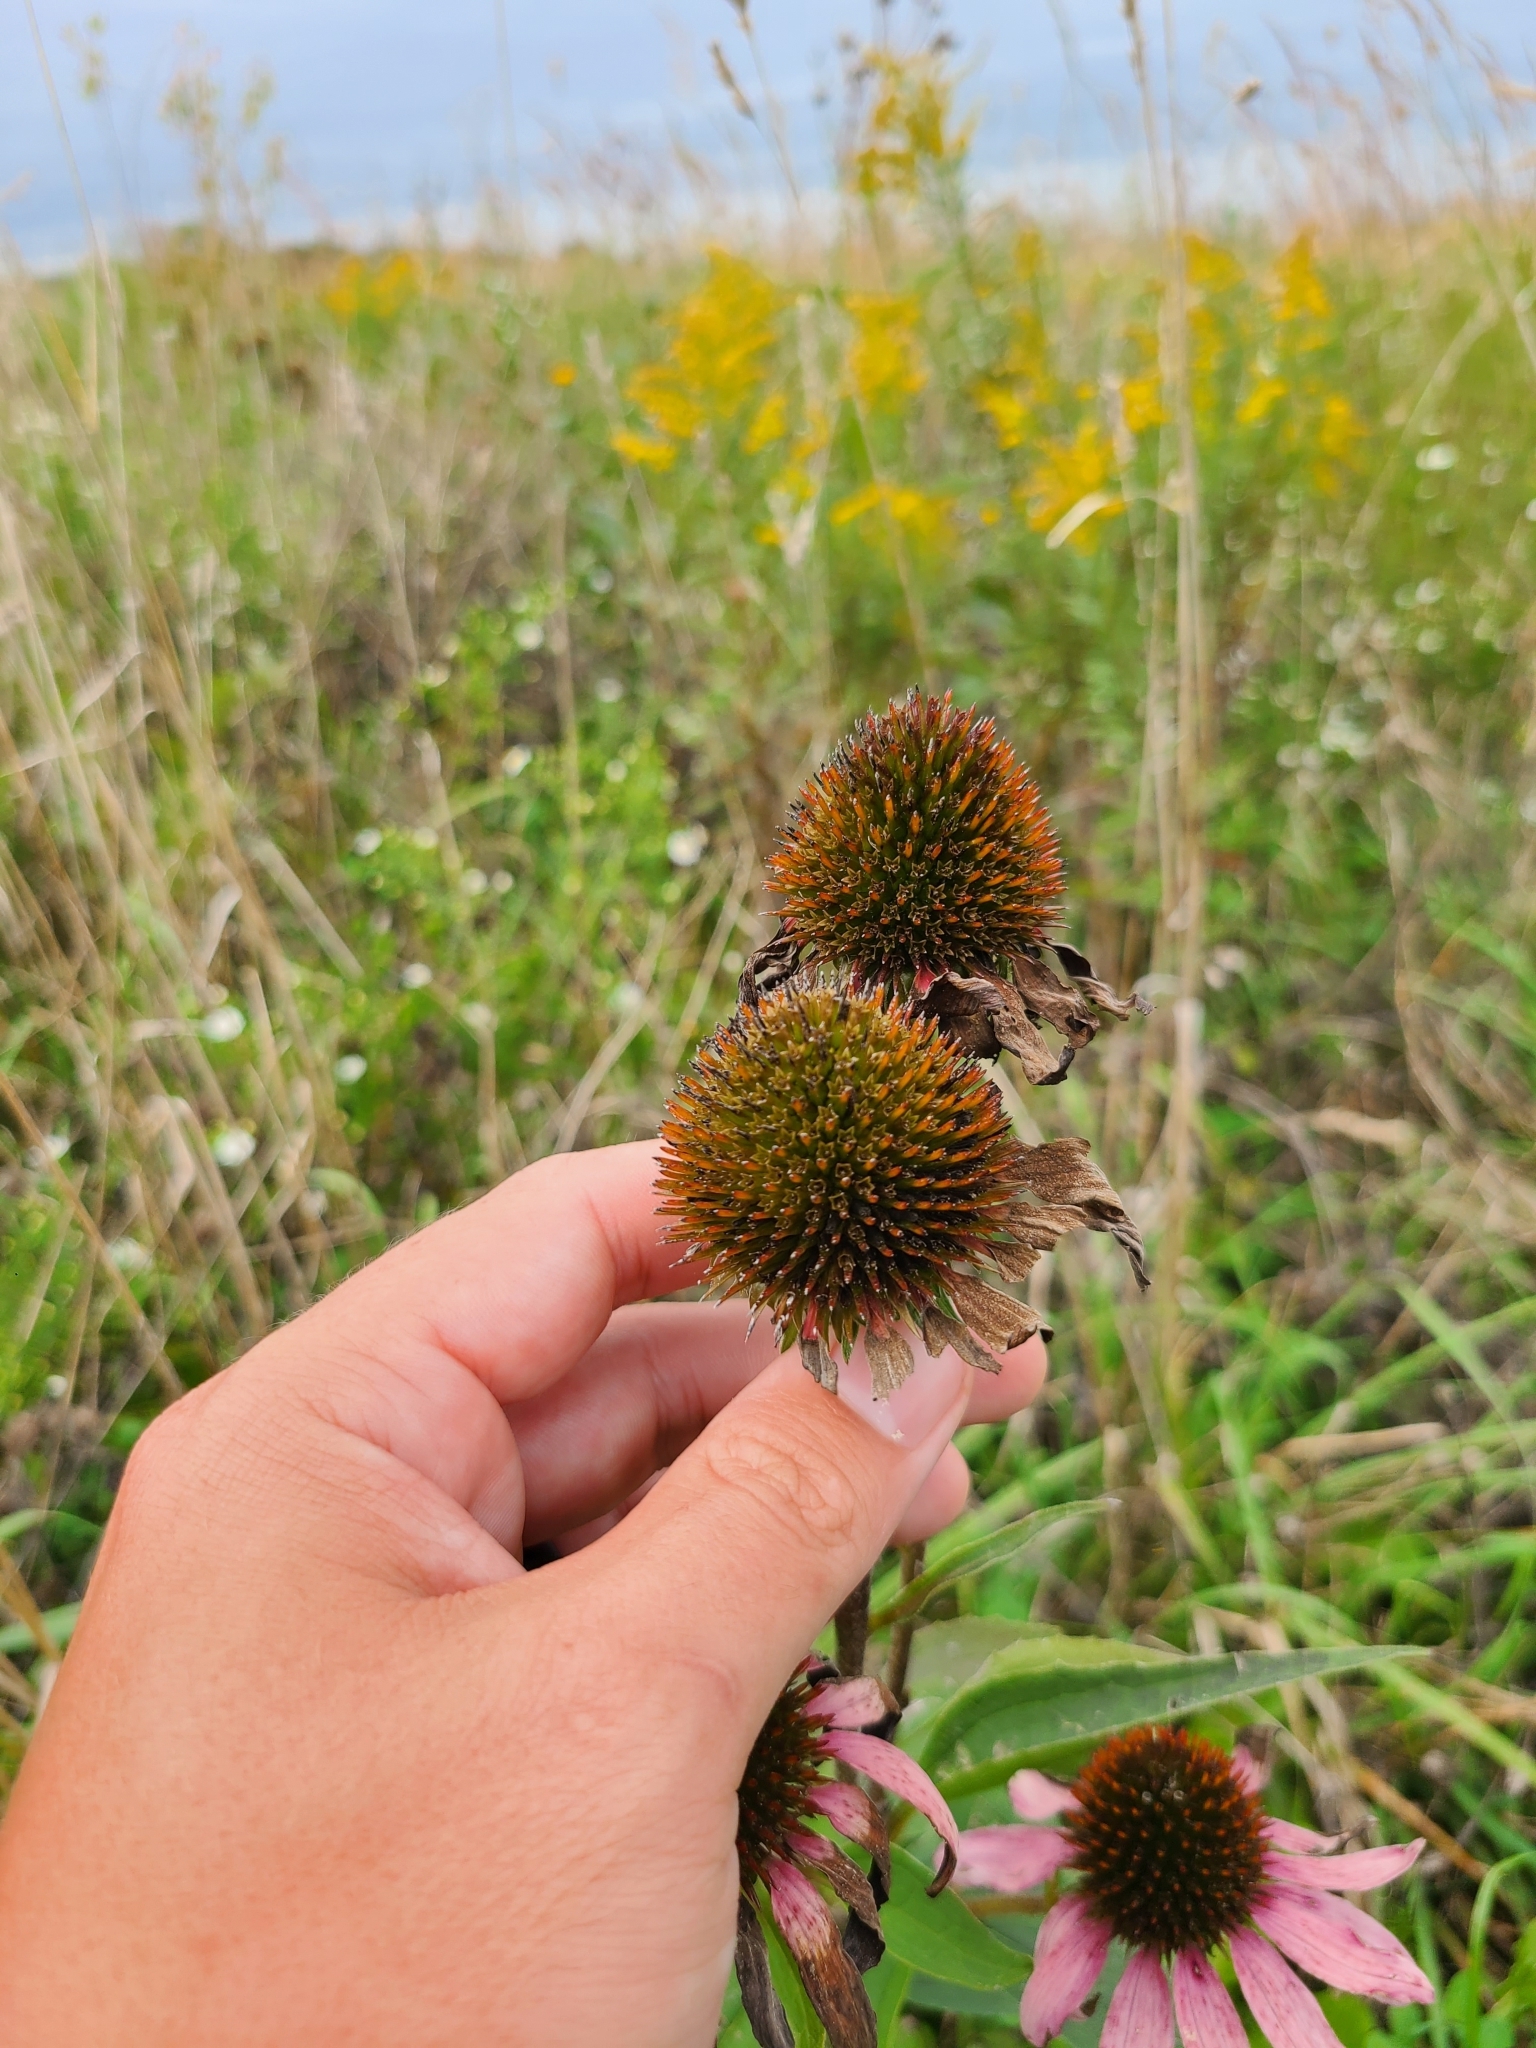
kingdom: Plantae
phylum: Tracheophyta
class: Magnoliopsida
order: Asterales
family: Asteraceae
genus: Echinacea
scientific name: Echinacea purpurea
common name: Broad-leaved purple coneflower
